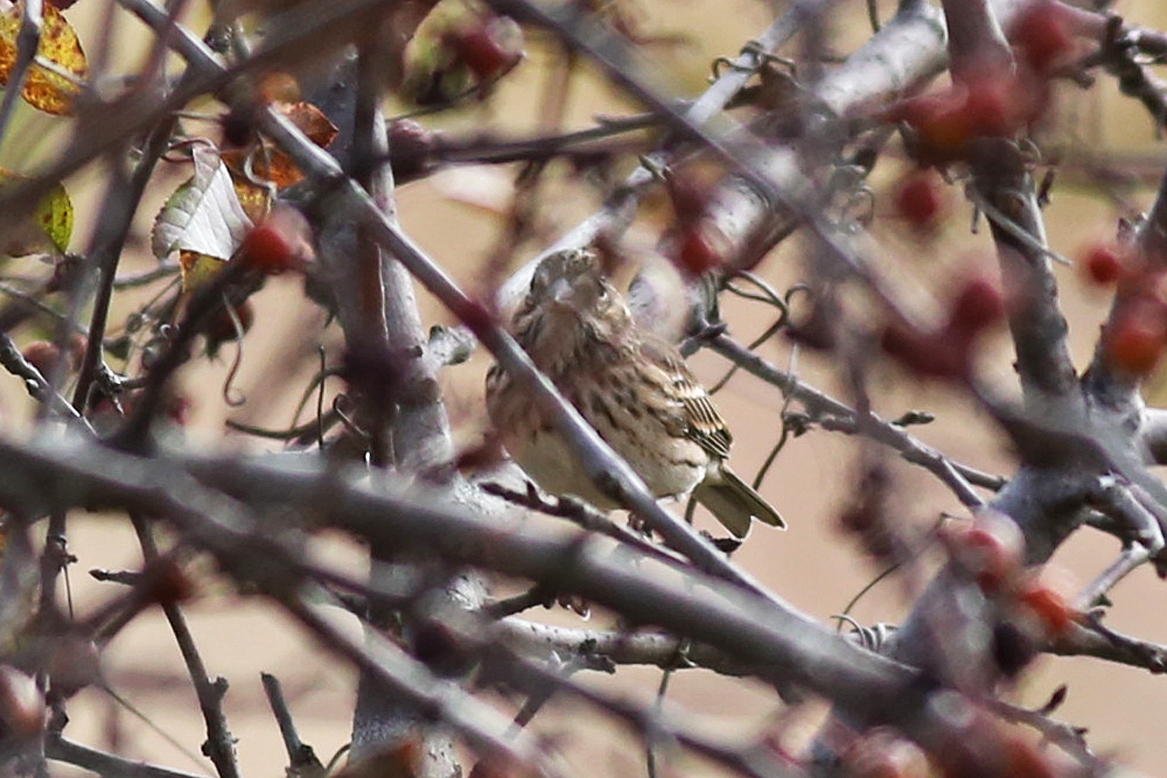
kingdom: Animalia
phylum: Chordata
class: Aves
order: Passeriformes
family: Passerellidae
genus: Pooecetes
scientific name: Pooecetes gramineus
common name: Vesper sparrow
